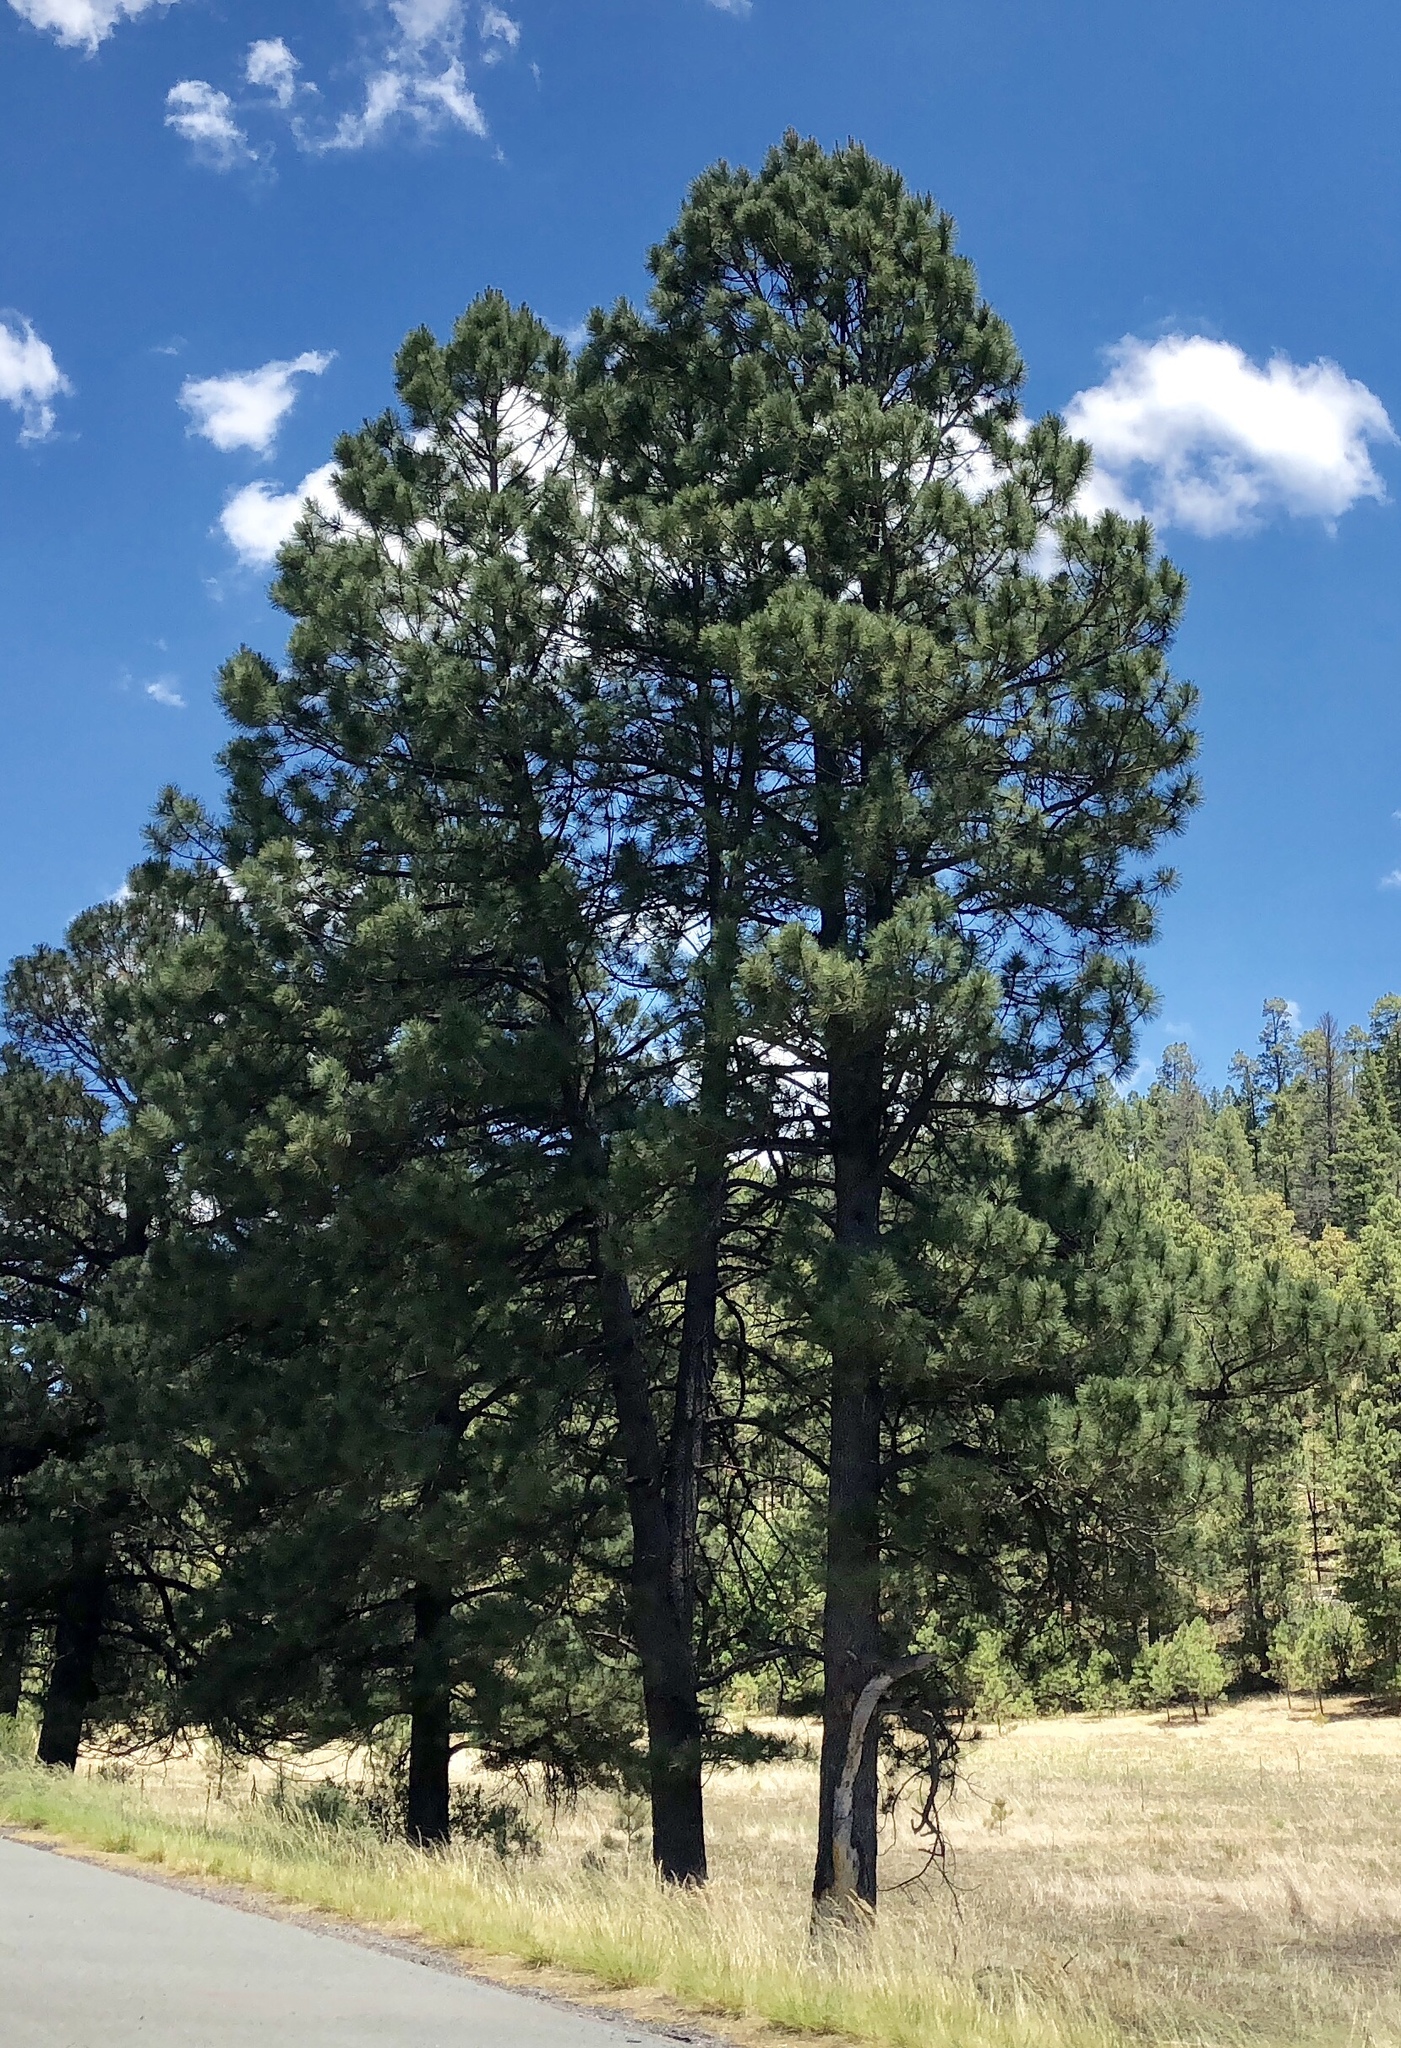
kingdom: Plantae
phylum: Tracheophyta
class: Pinopsida
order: Pinales
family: Pinaceae
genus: Pinus
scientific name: Pinus ponderosa
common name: Western yellow-pine
